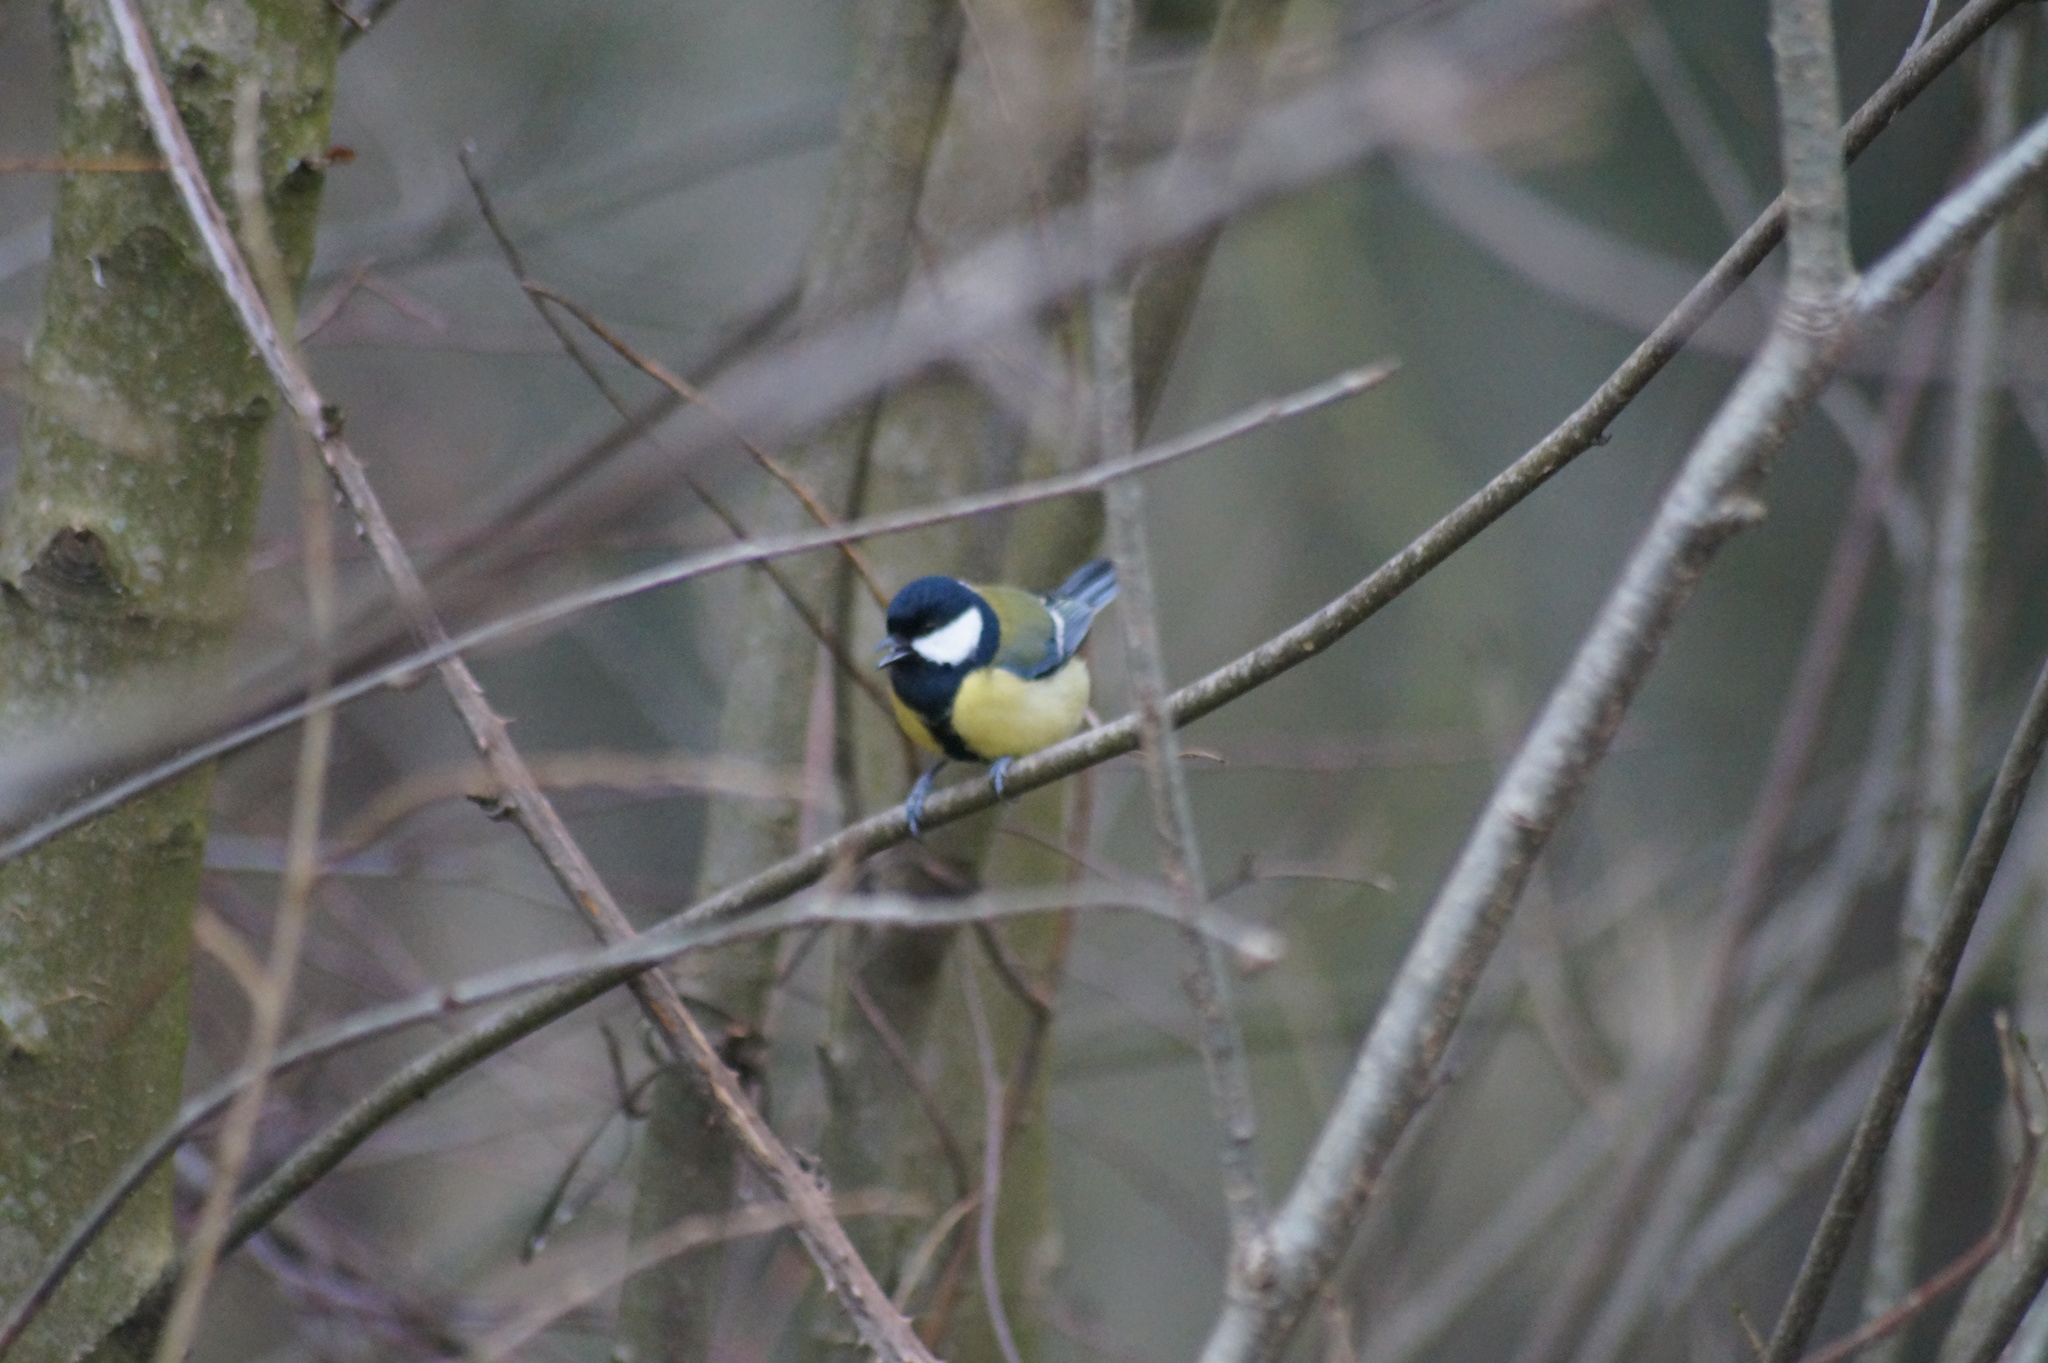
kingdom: Animalia
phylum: Chordata
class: Aves
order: Passeriformes
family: Paridae
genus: Parus
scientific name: Parus major
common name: Great tit
